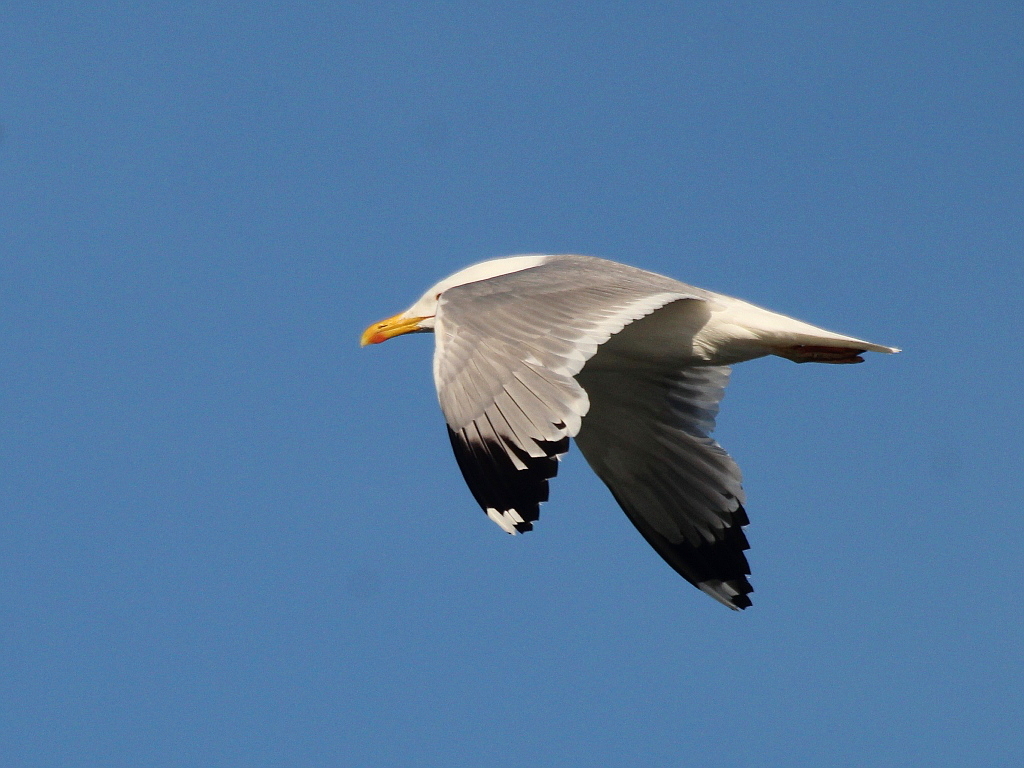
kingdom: Animalia
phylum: Chordata
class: Aves
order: Charadriiformes
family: Laridae
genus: Larus
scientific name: Larus cachinnans
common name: Caspian gull
